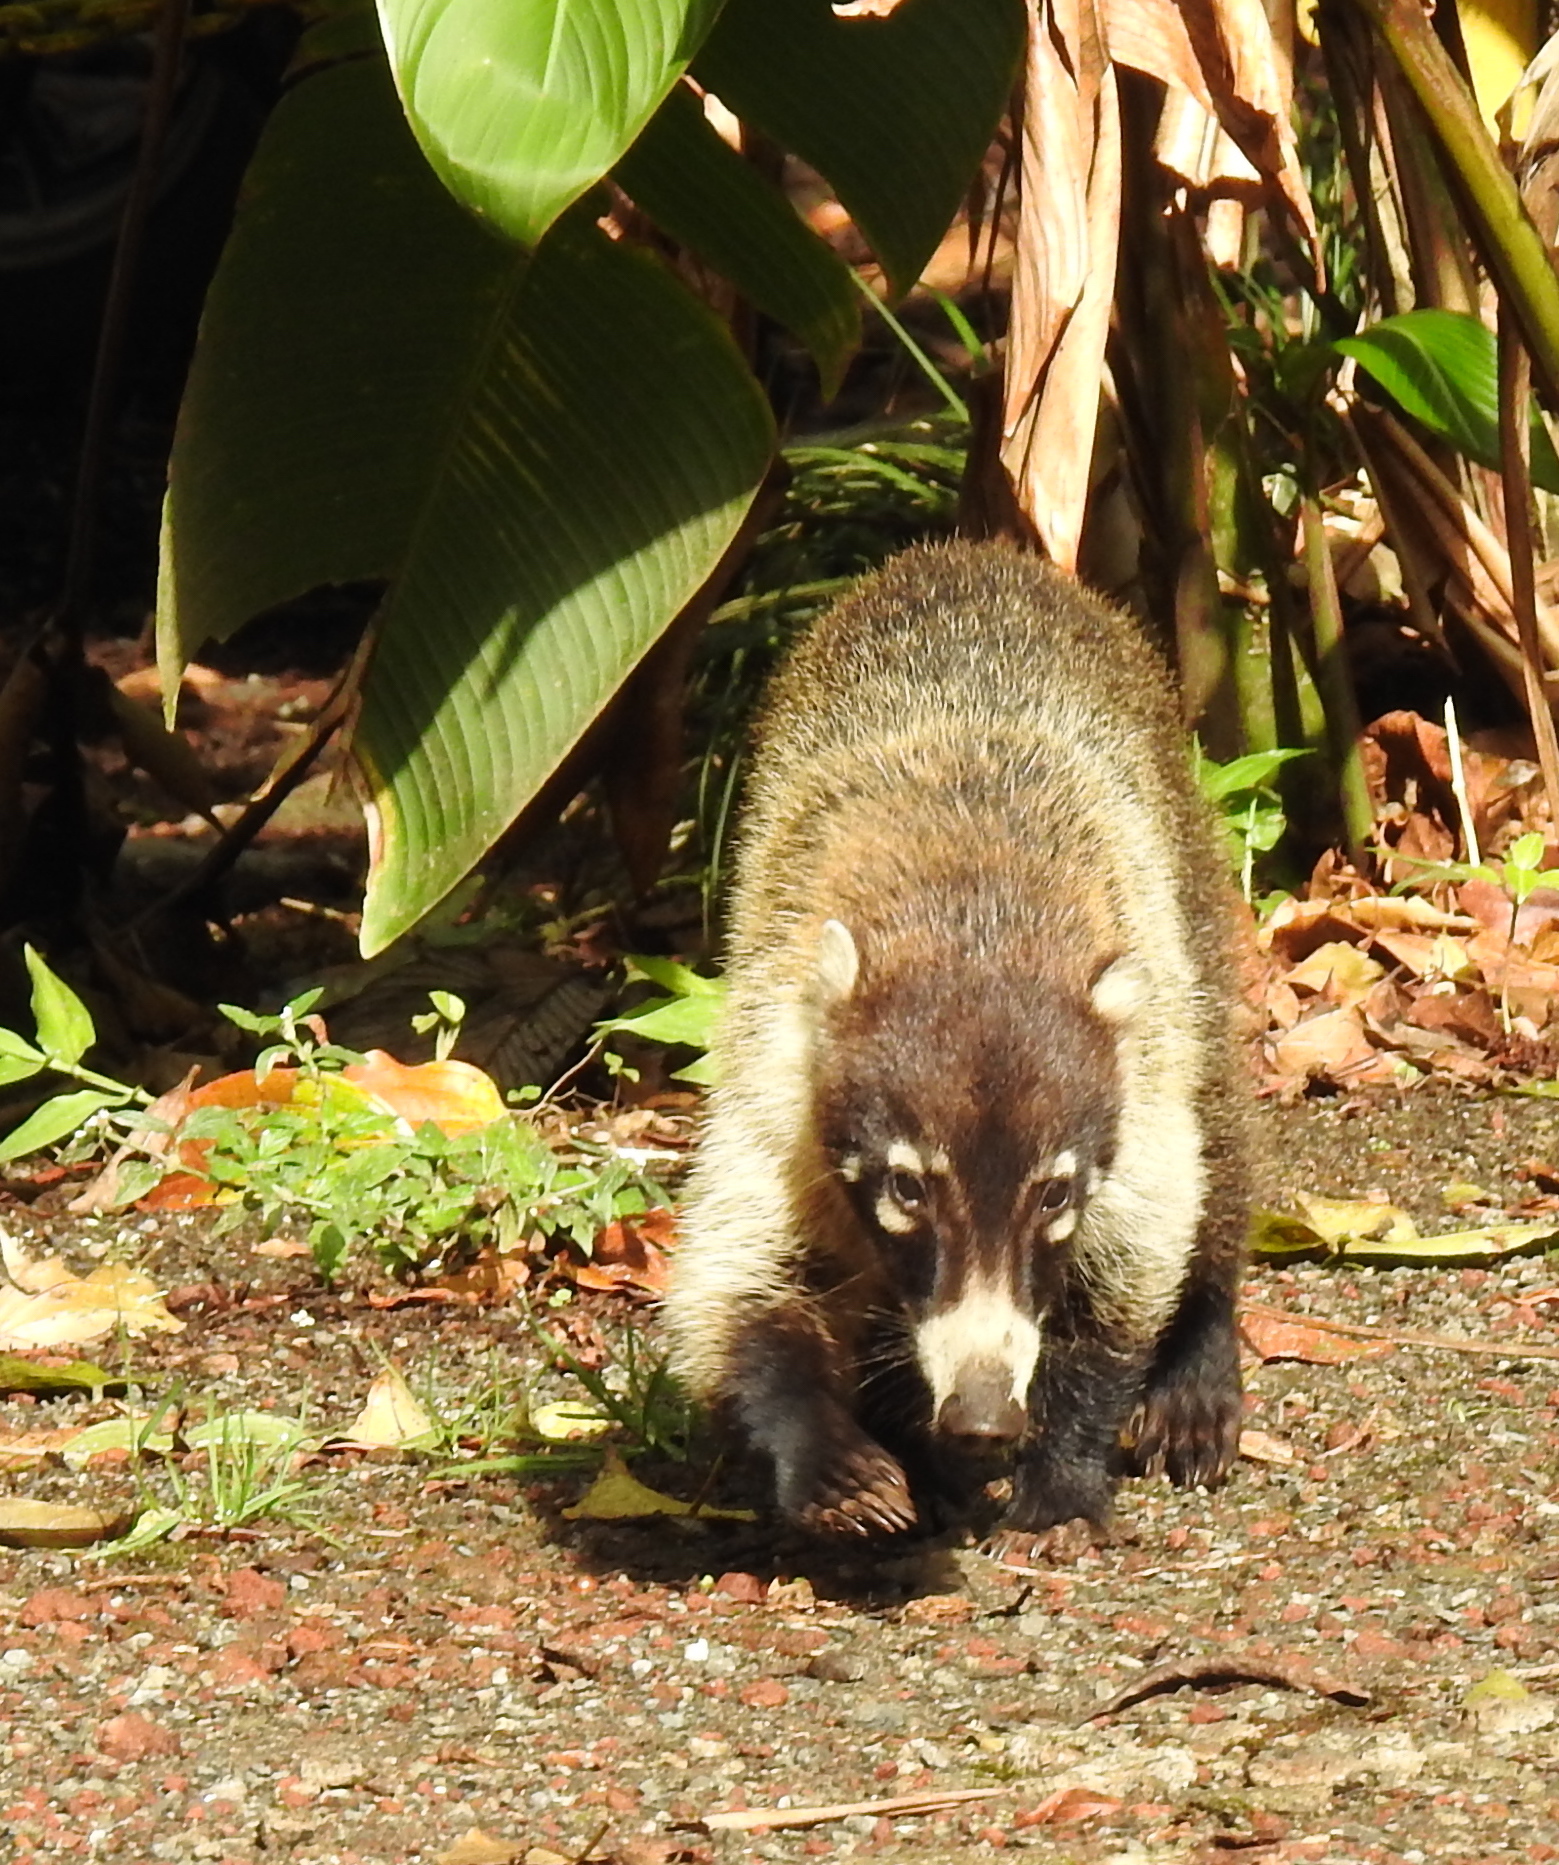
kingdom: Animalia
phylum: Chordata
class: Mammalia
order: Carnivora
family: Procyonidae
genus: Nasua
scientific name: Nasua narica
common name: White-nosed coati
